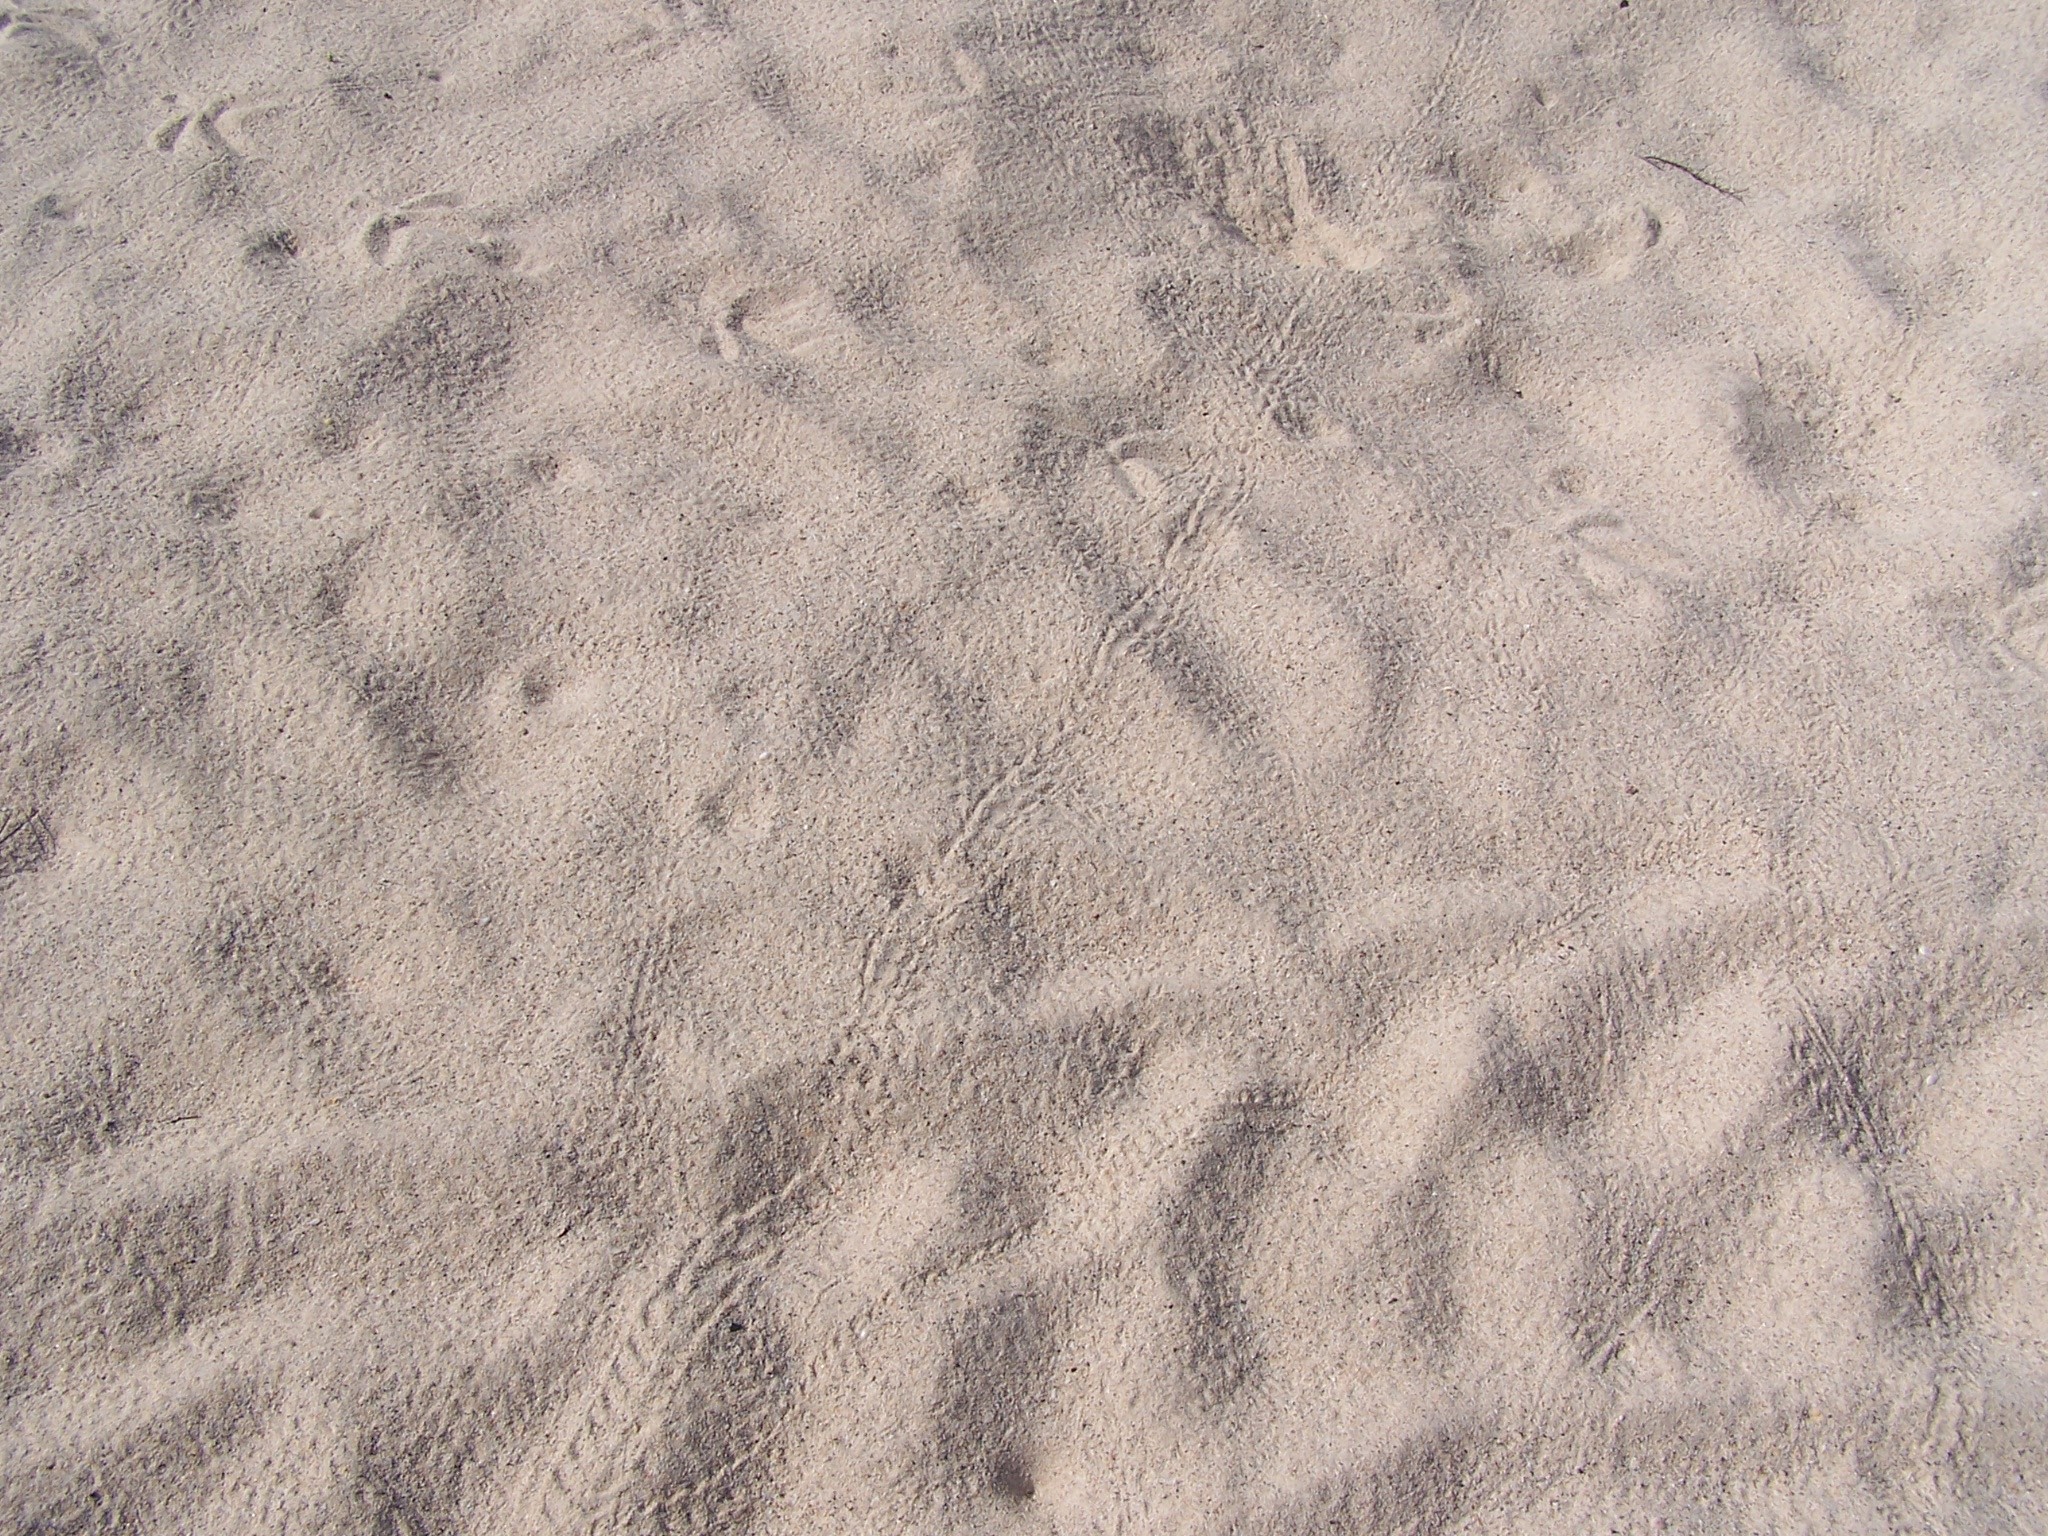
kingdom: Animalia
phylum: Chordata
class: Testudines
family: Cheloniidae
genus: Chelonia
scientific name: Chelonia mydas
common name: Green turtle
